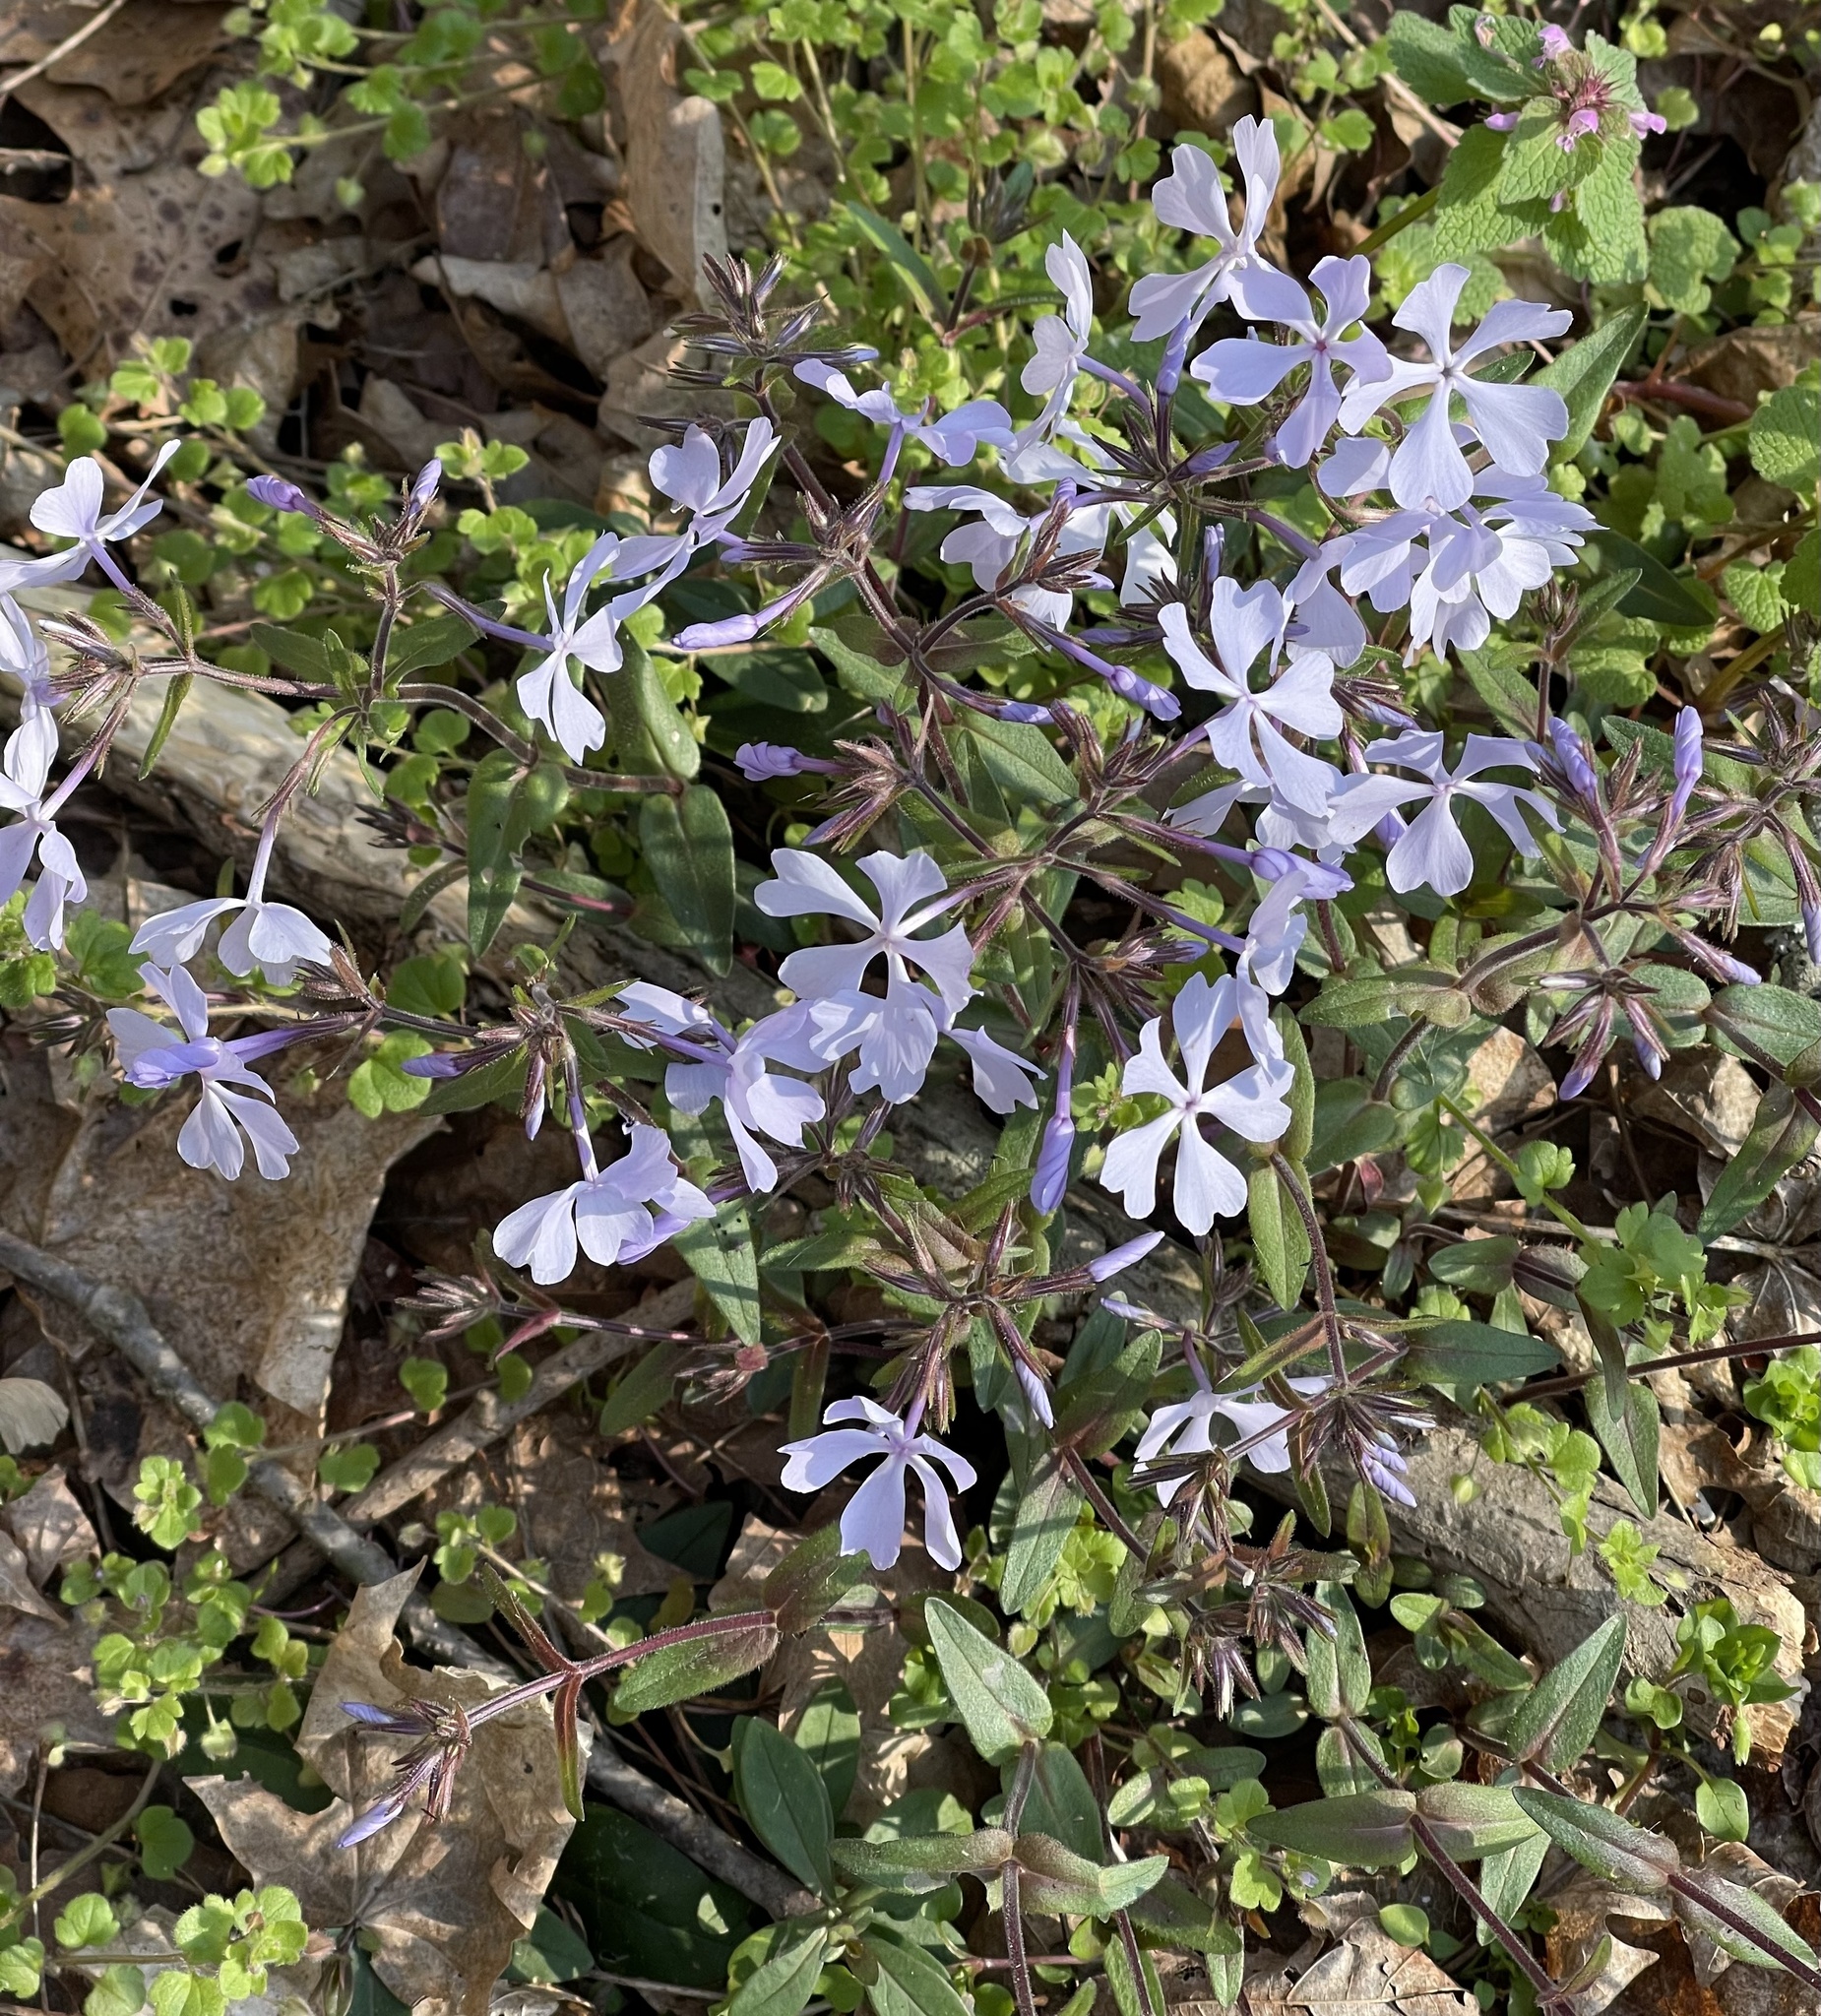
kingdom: Plantae
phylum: Tracheophyta
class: Magnoliopsida
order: Ericales
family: Polemoniaceae
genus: Phlox
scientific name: Phlox divaricata
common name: Blue phlox
